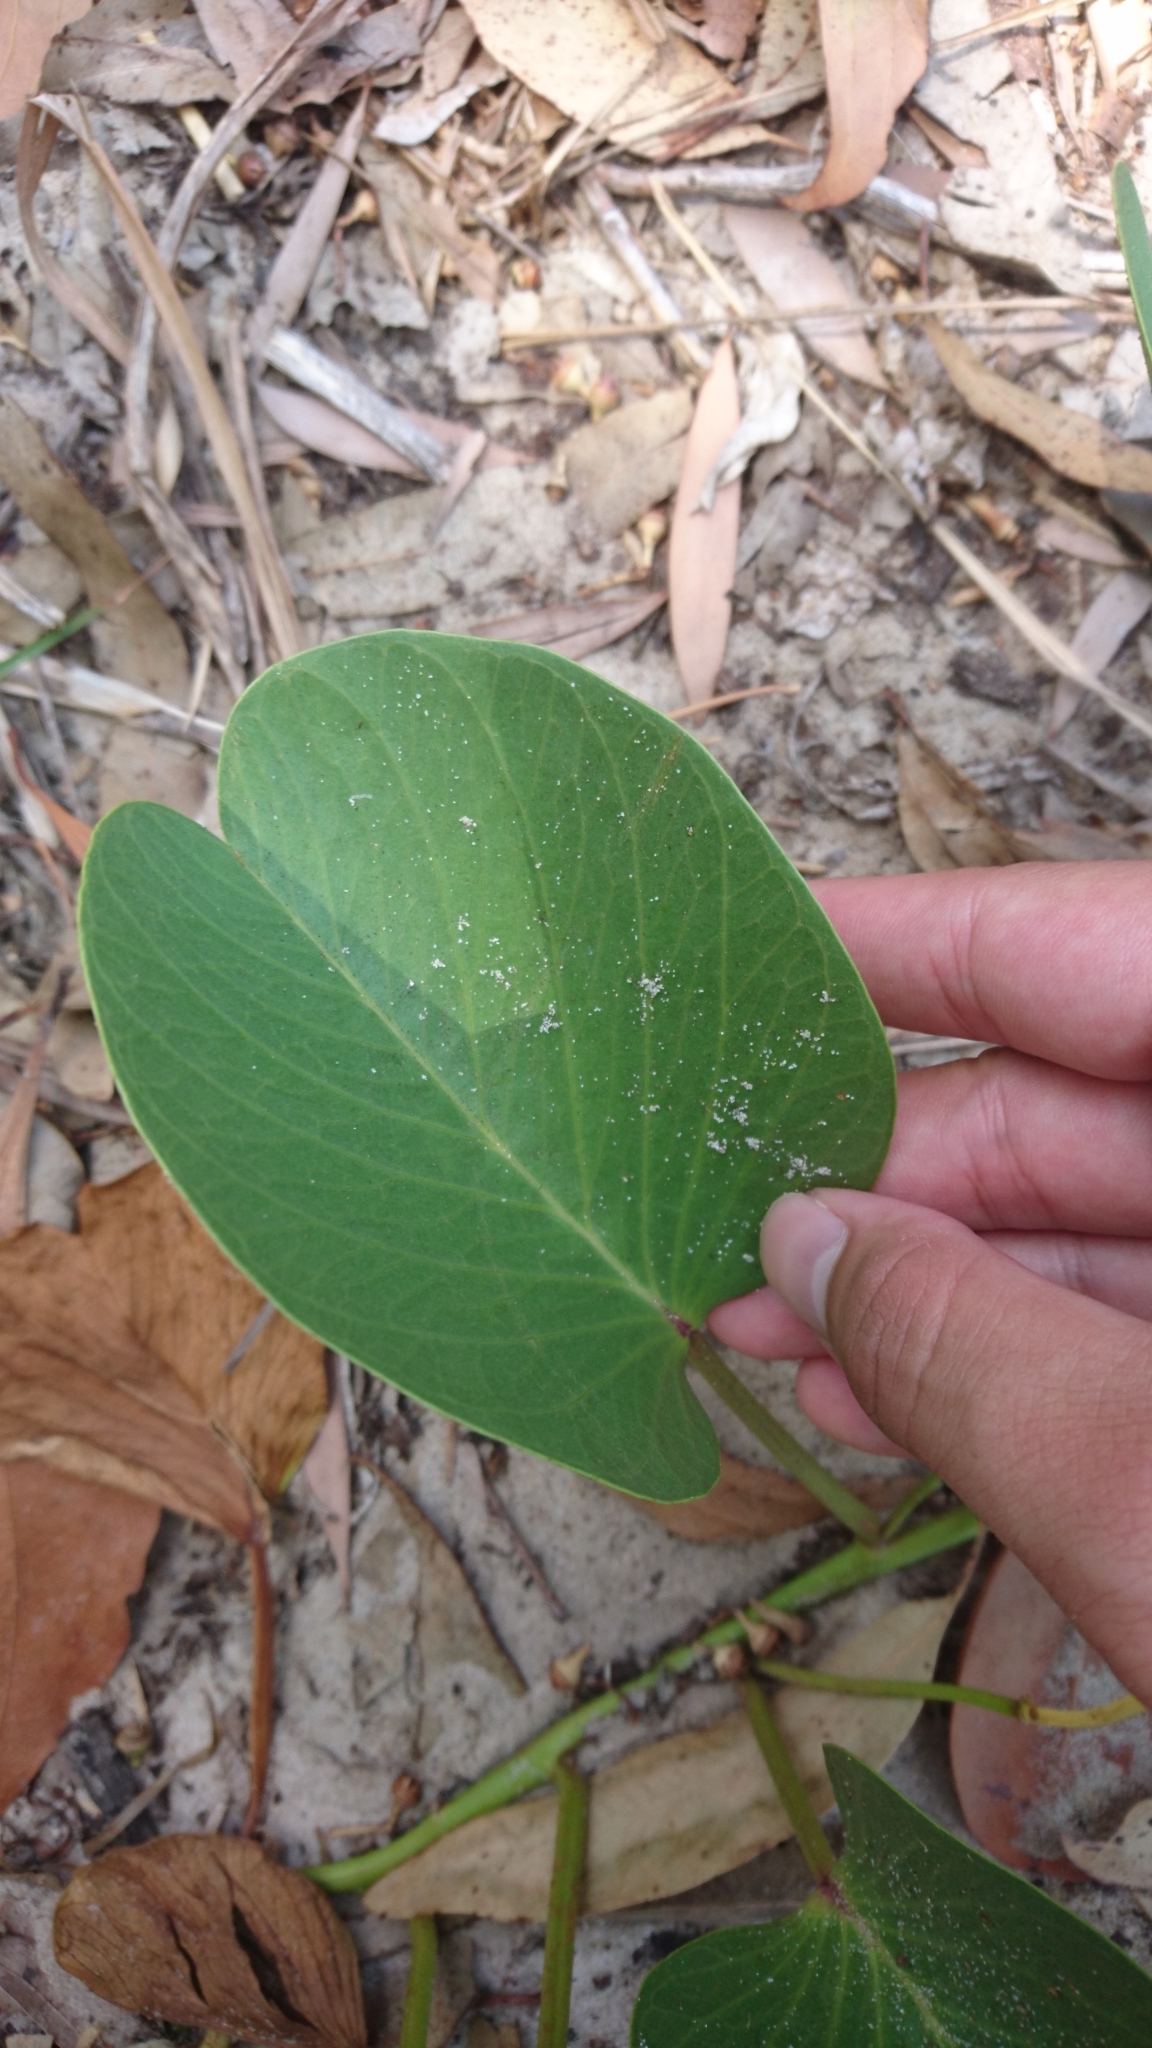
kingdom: Plantae
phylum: Tracheophyta
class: Magnoliopsida
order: Solanales
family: Convolvulaceae
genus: Ipomoea
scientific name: Ipomoea pes-caprae
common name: Beach morning glory
